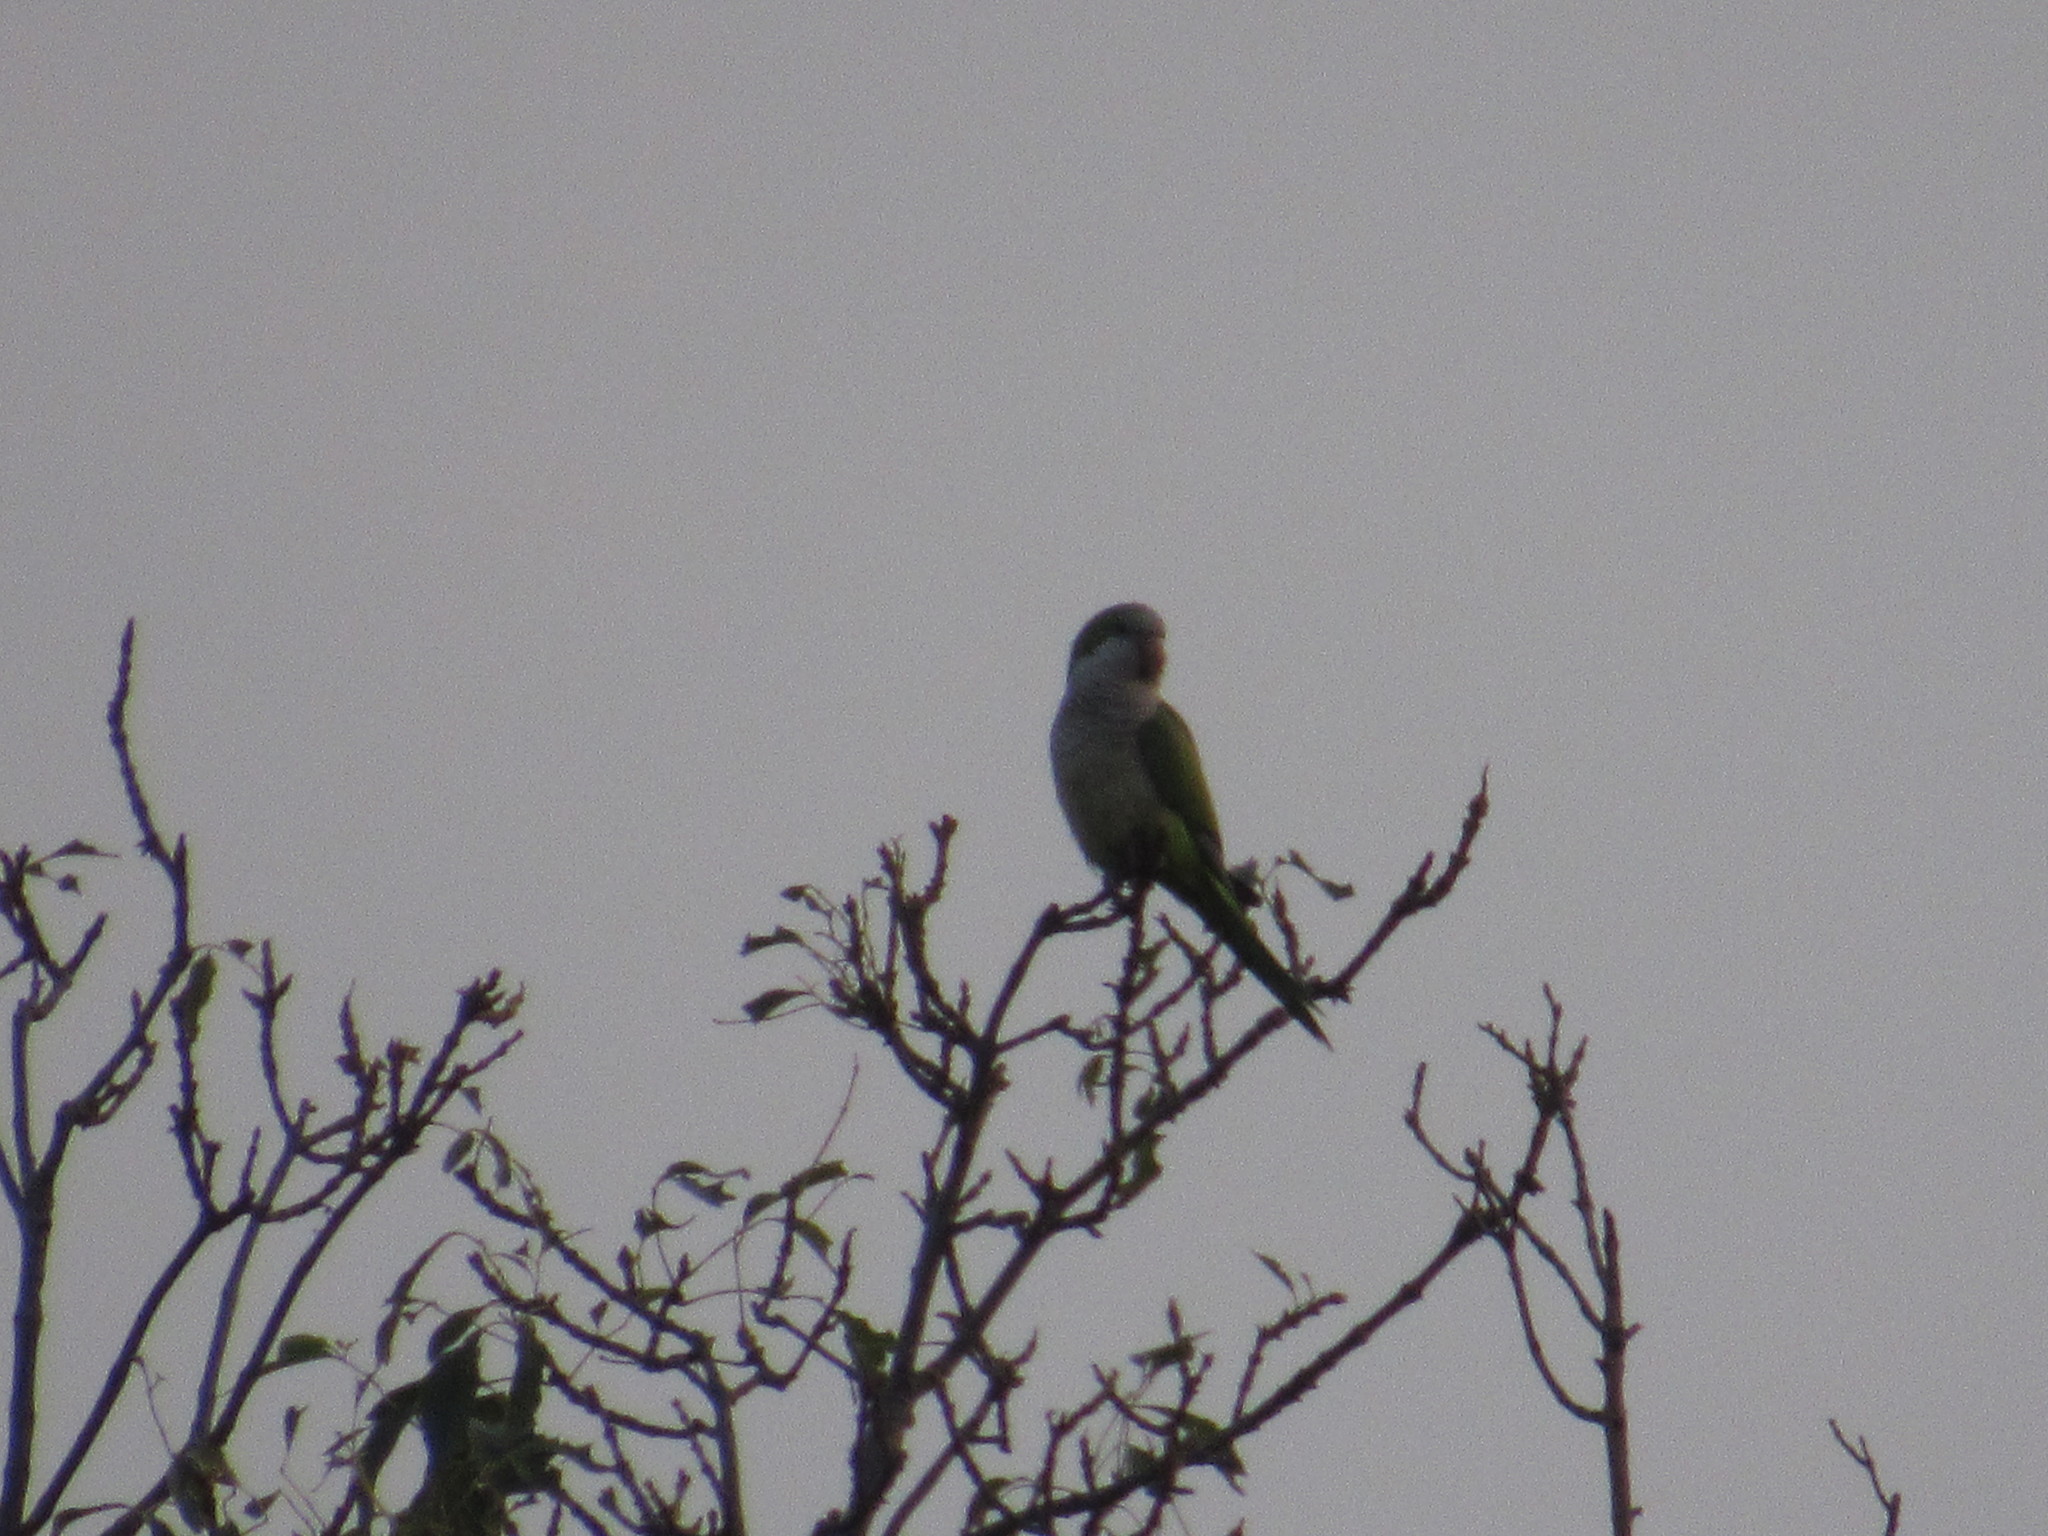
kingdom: Animalia
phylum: Chordata
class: Aves
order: Psittaciformes
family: Psittacidae
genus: Myiopsitta
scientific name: Myiopsitta monachus
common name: Monk parakeet
